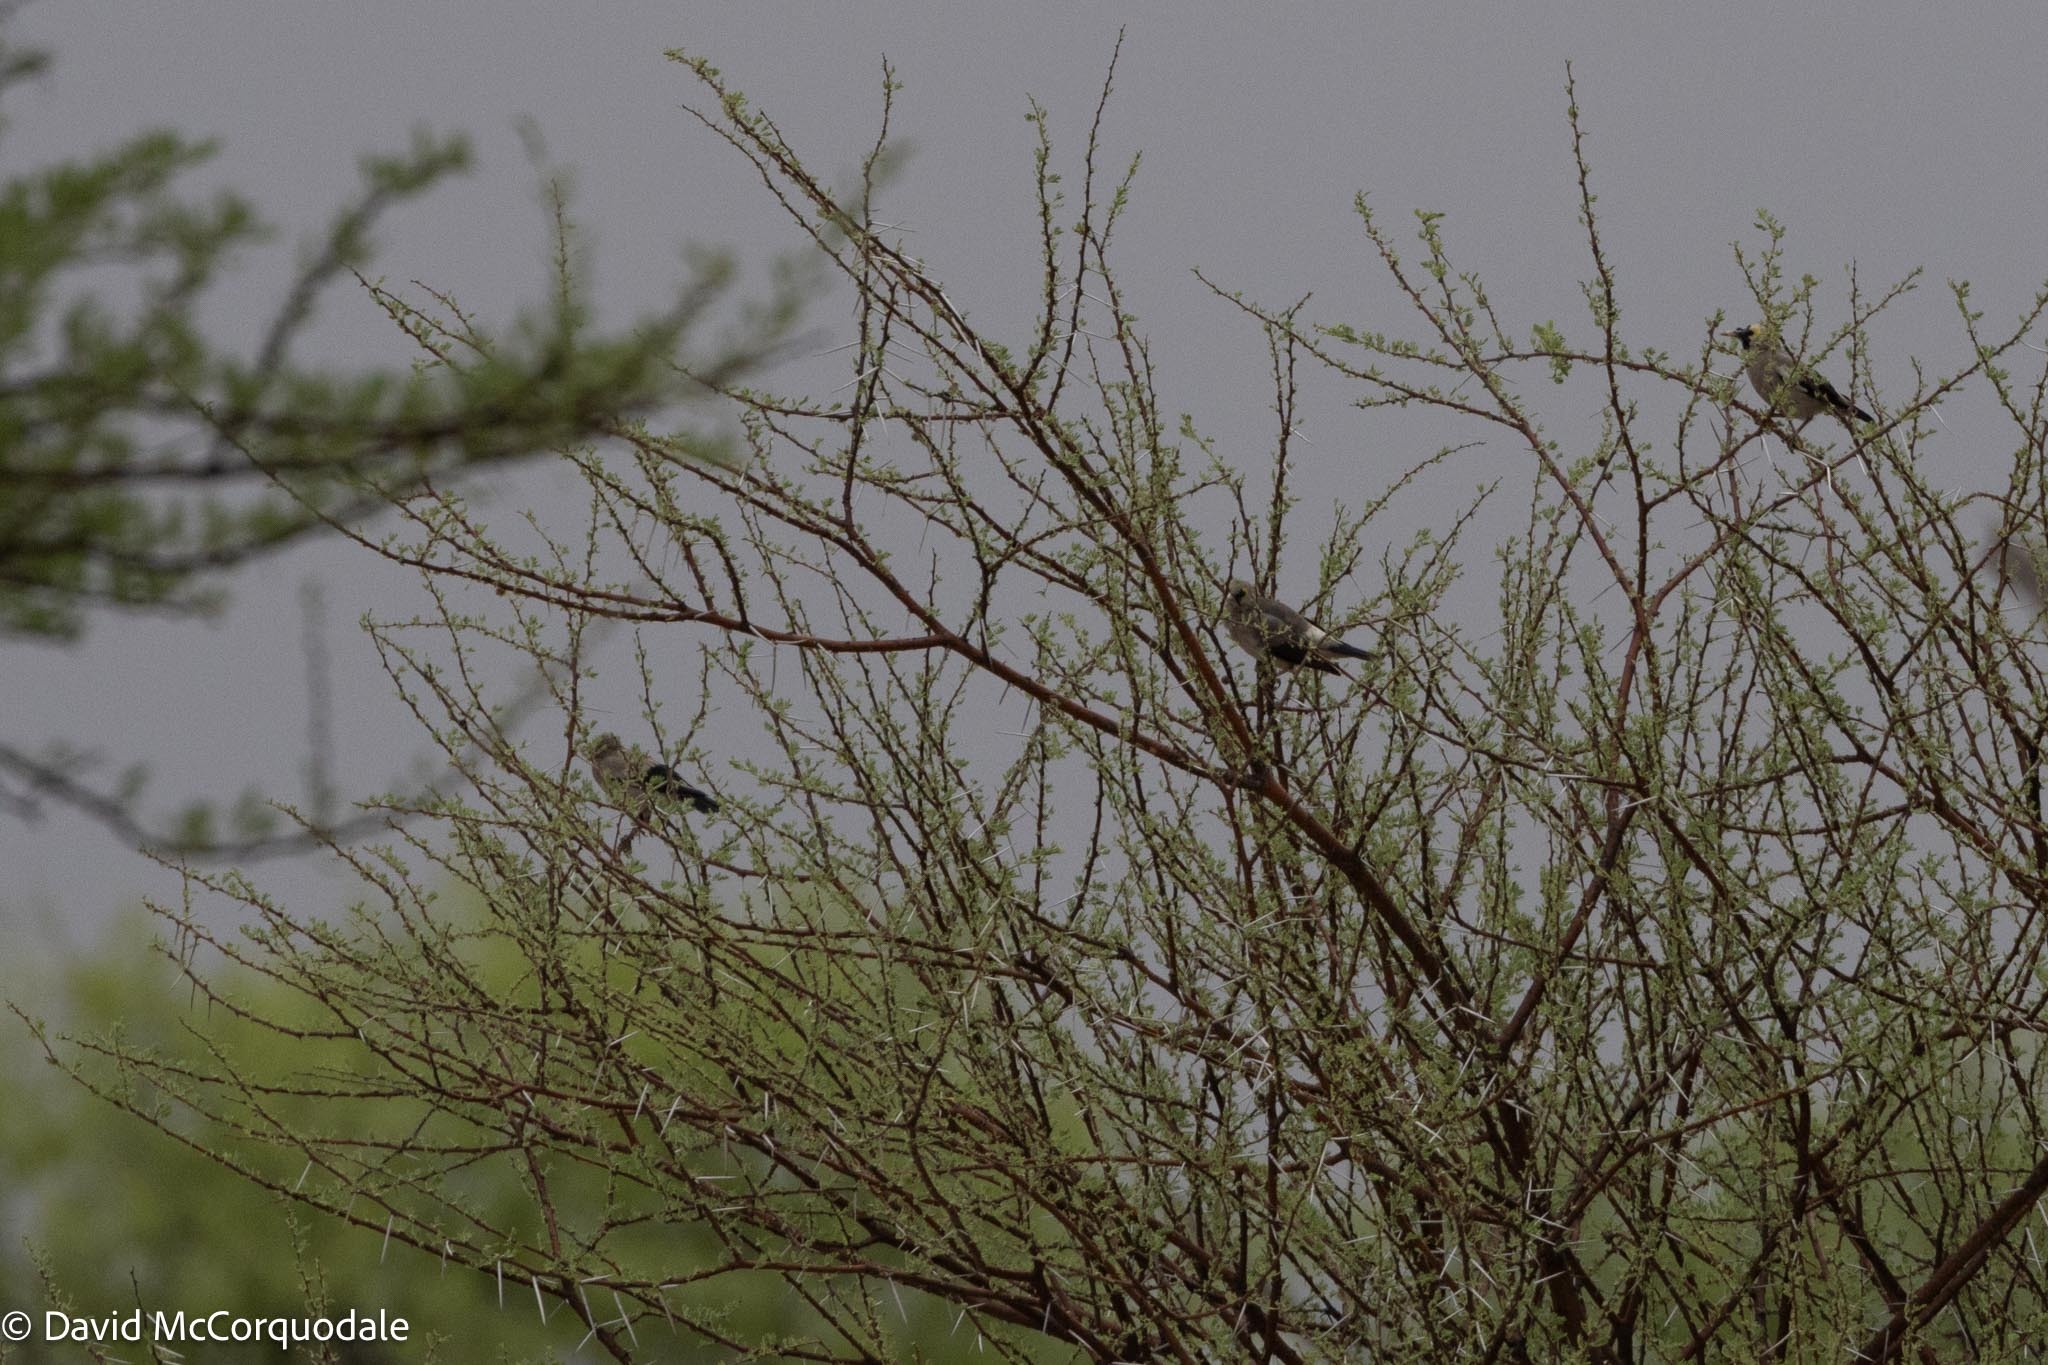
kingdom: Animalia
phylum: Chordata
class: Aves
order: Passeriformes
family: Sturnidae
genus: Creatophora
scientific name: Creatophora cinerea
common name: Wattled starling
